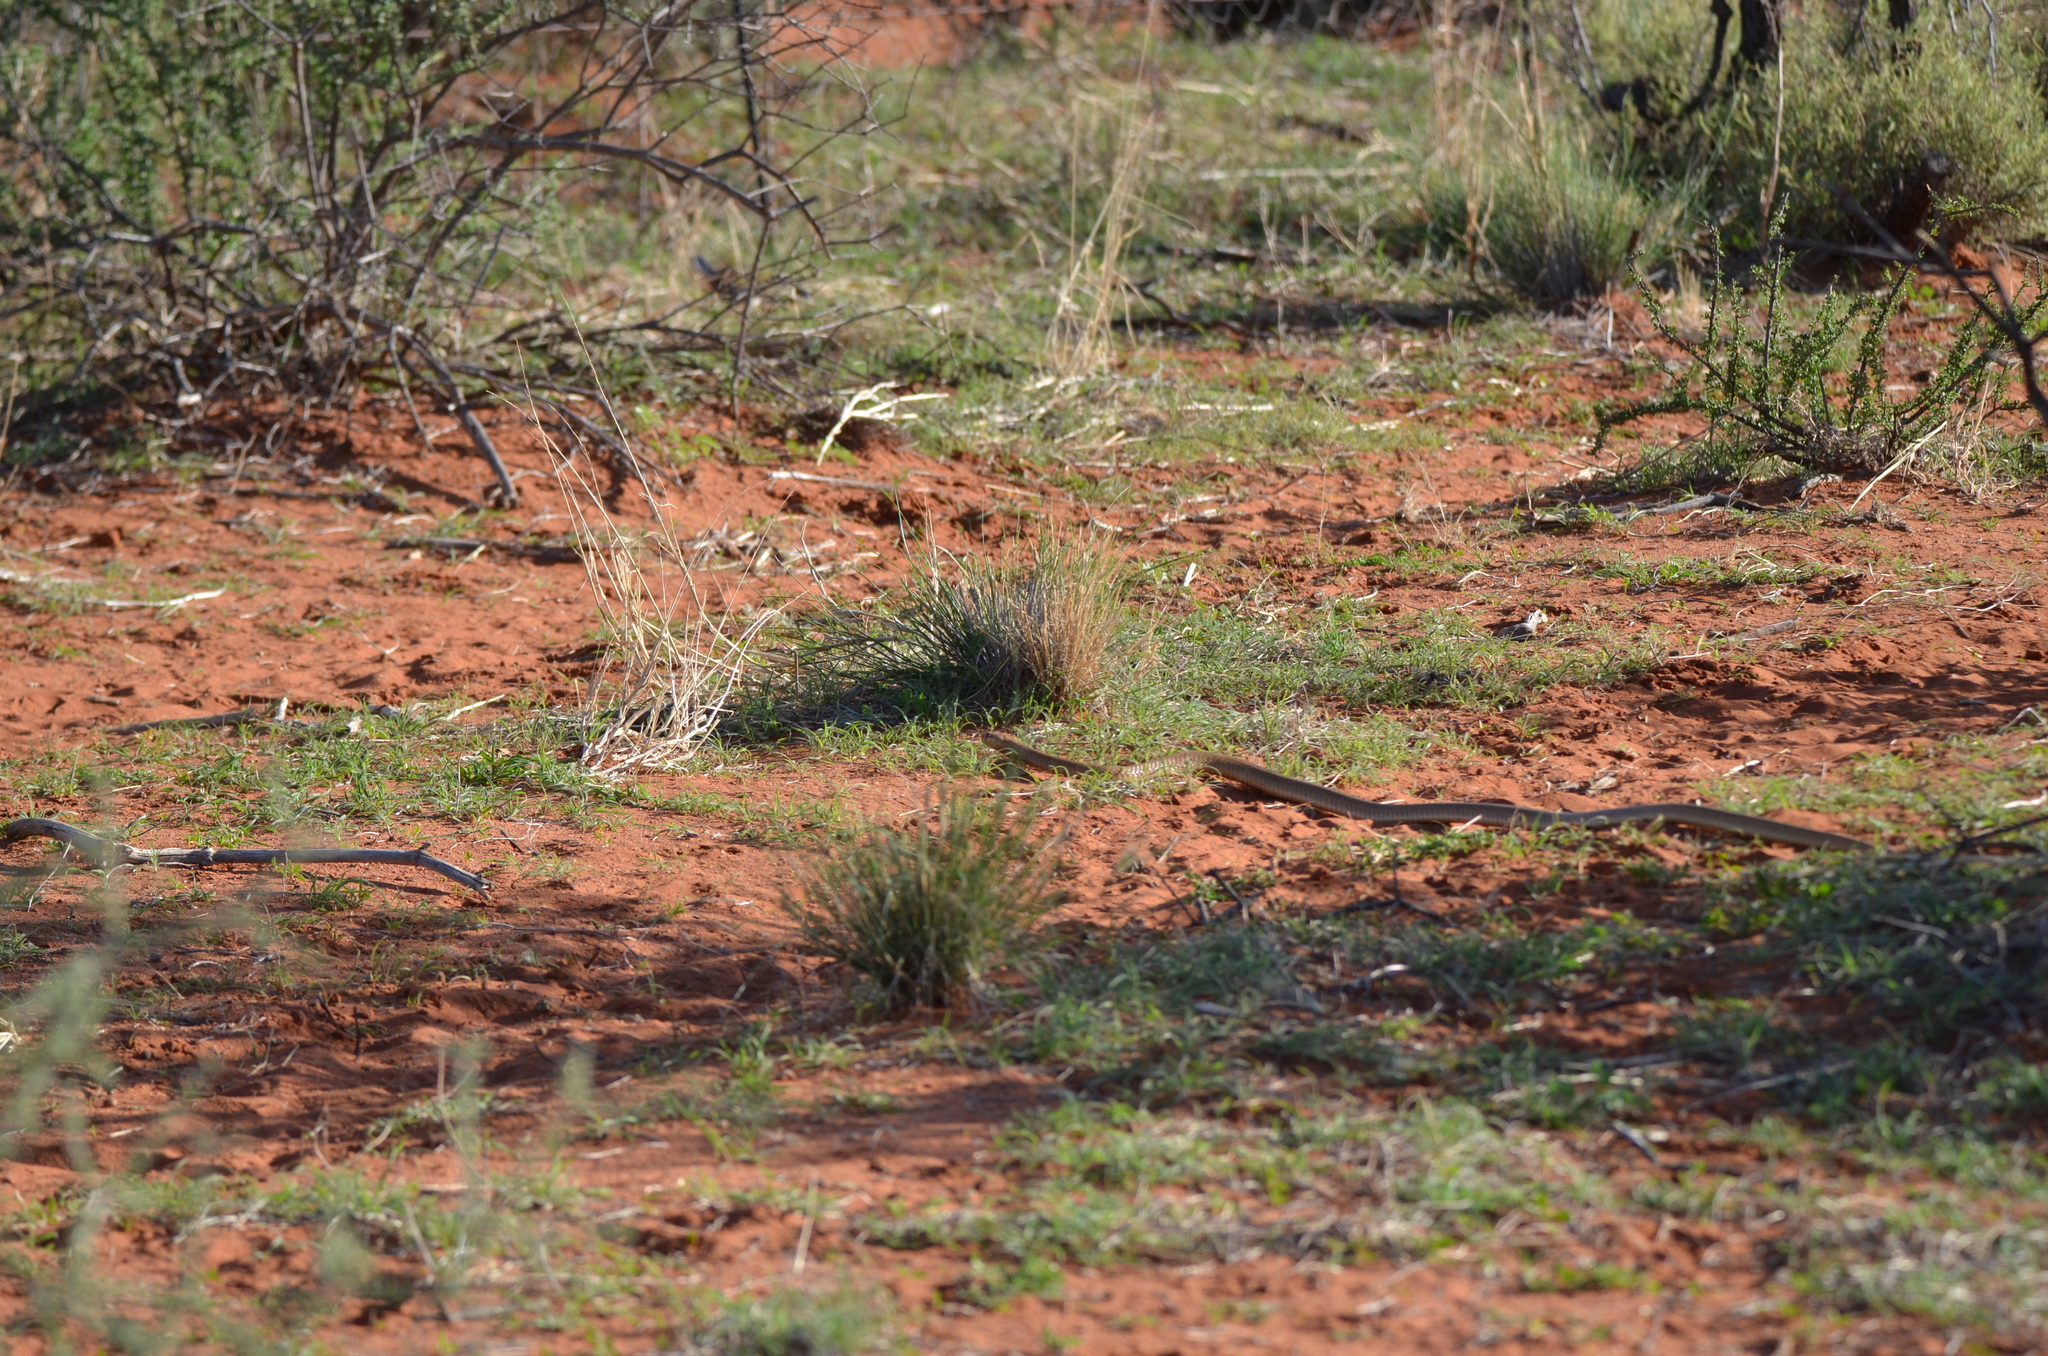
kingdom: Animalia
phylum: Chordata
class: Squamata
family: Elapidae
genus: Naja
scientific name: Naja nivea
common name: Cape cobra
